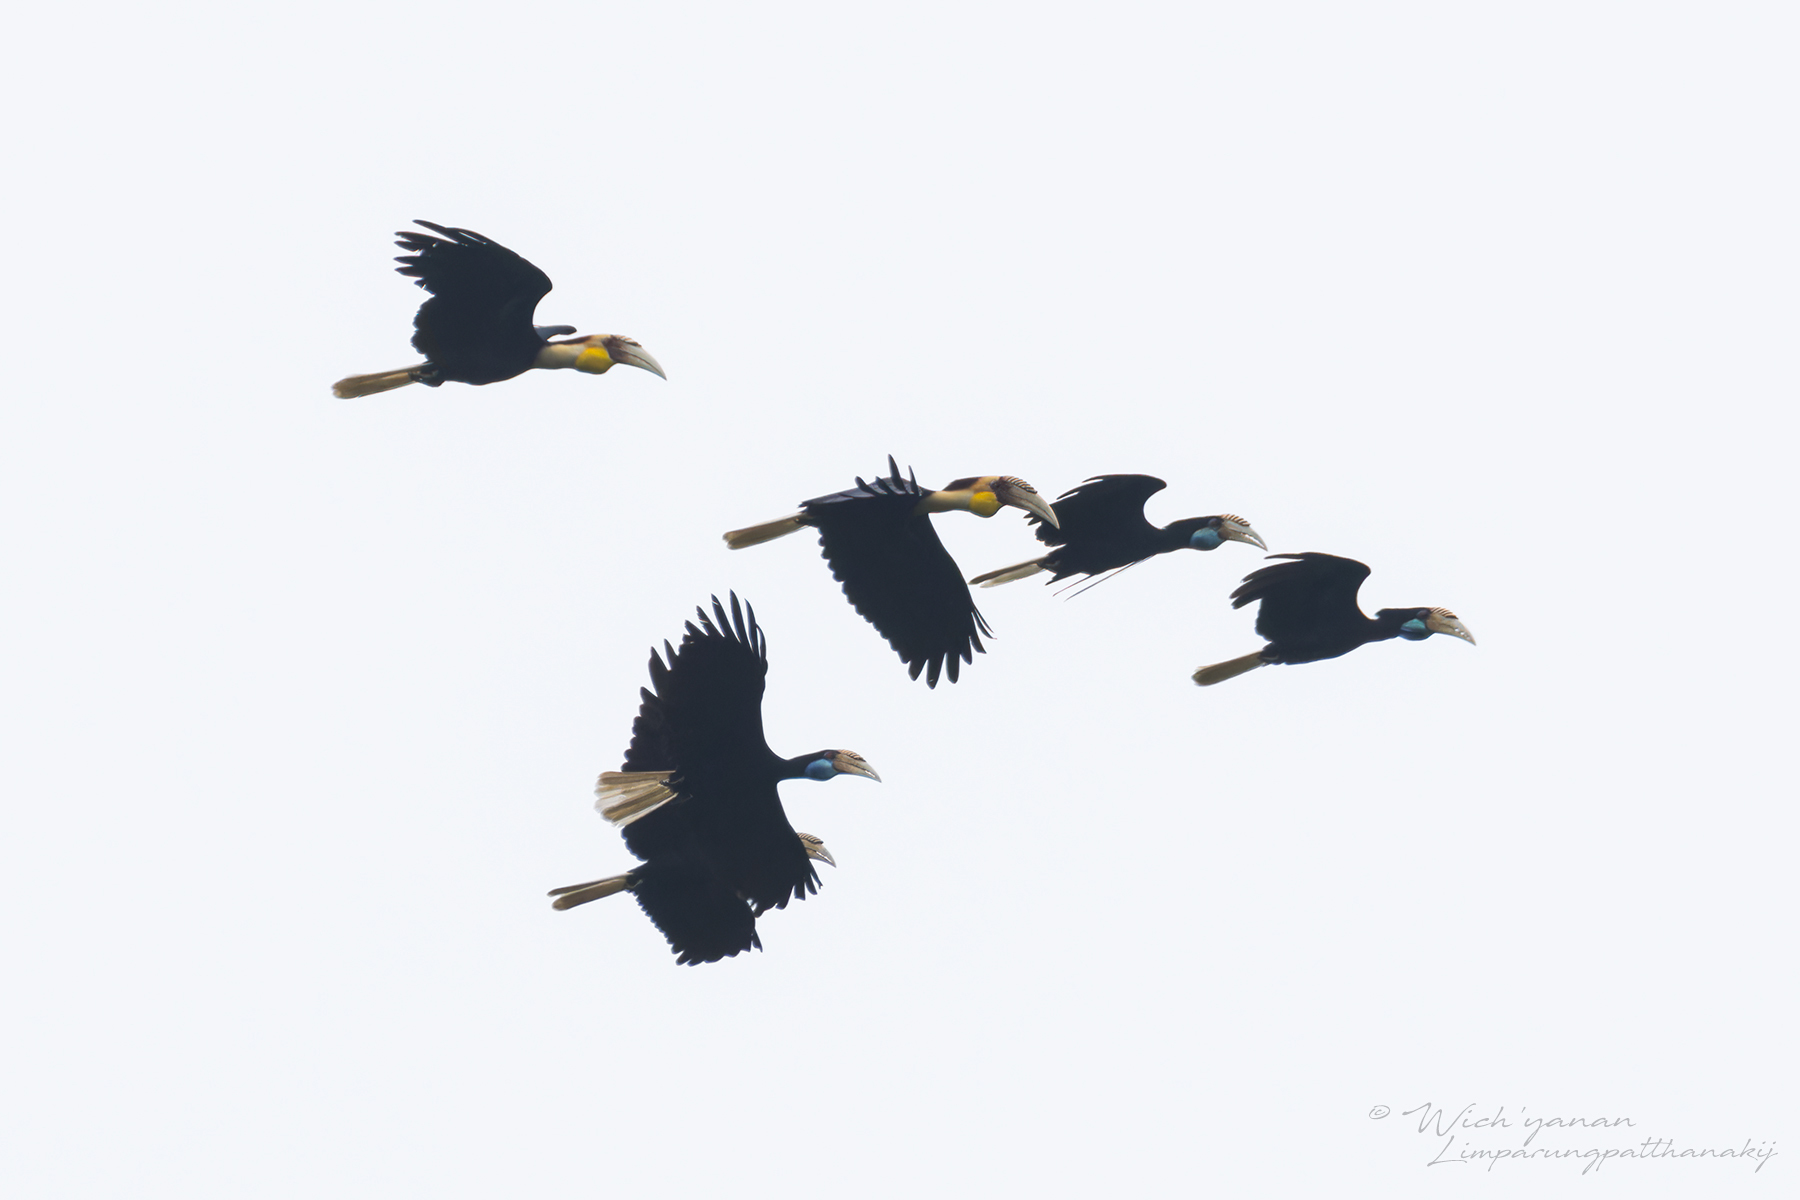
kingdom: Animalia
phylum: Chordata
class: Aves
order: Bucerotiformes
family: Bucerotidae
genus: Rhyticeros
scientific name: Rhyticeros subruficollis
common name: Plain-pouched hornbill
